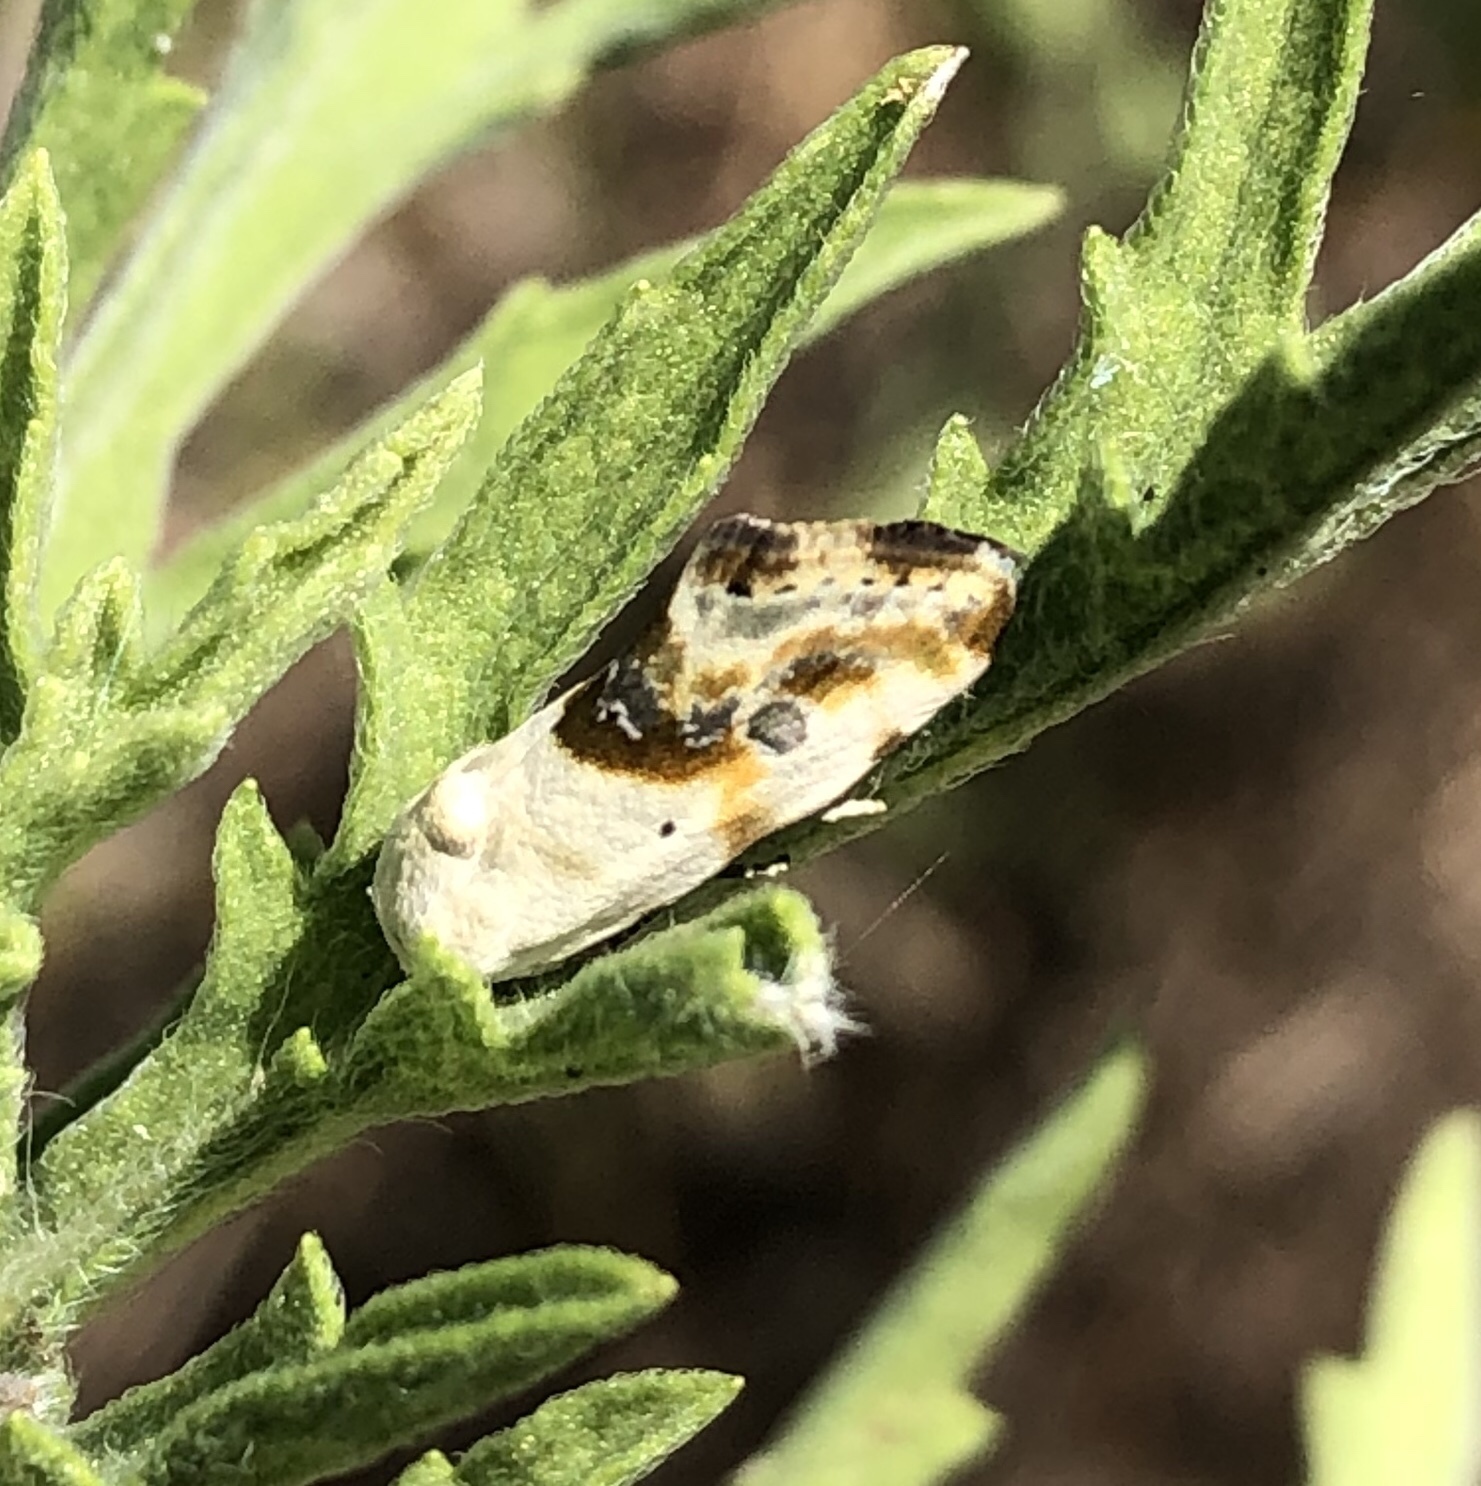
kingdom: Animalia
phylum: Arthropoda
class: Insecta
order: Lepidoptera
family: Noctuidae
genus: Acontia
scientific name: Acontia candefacta
